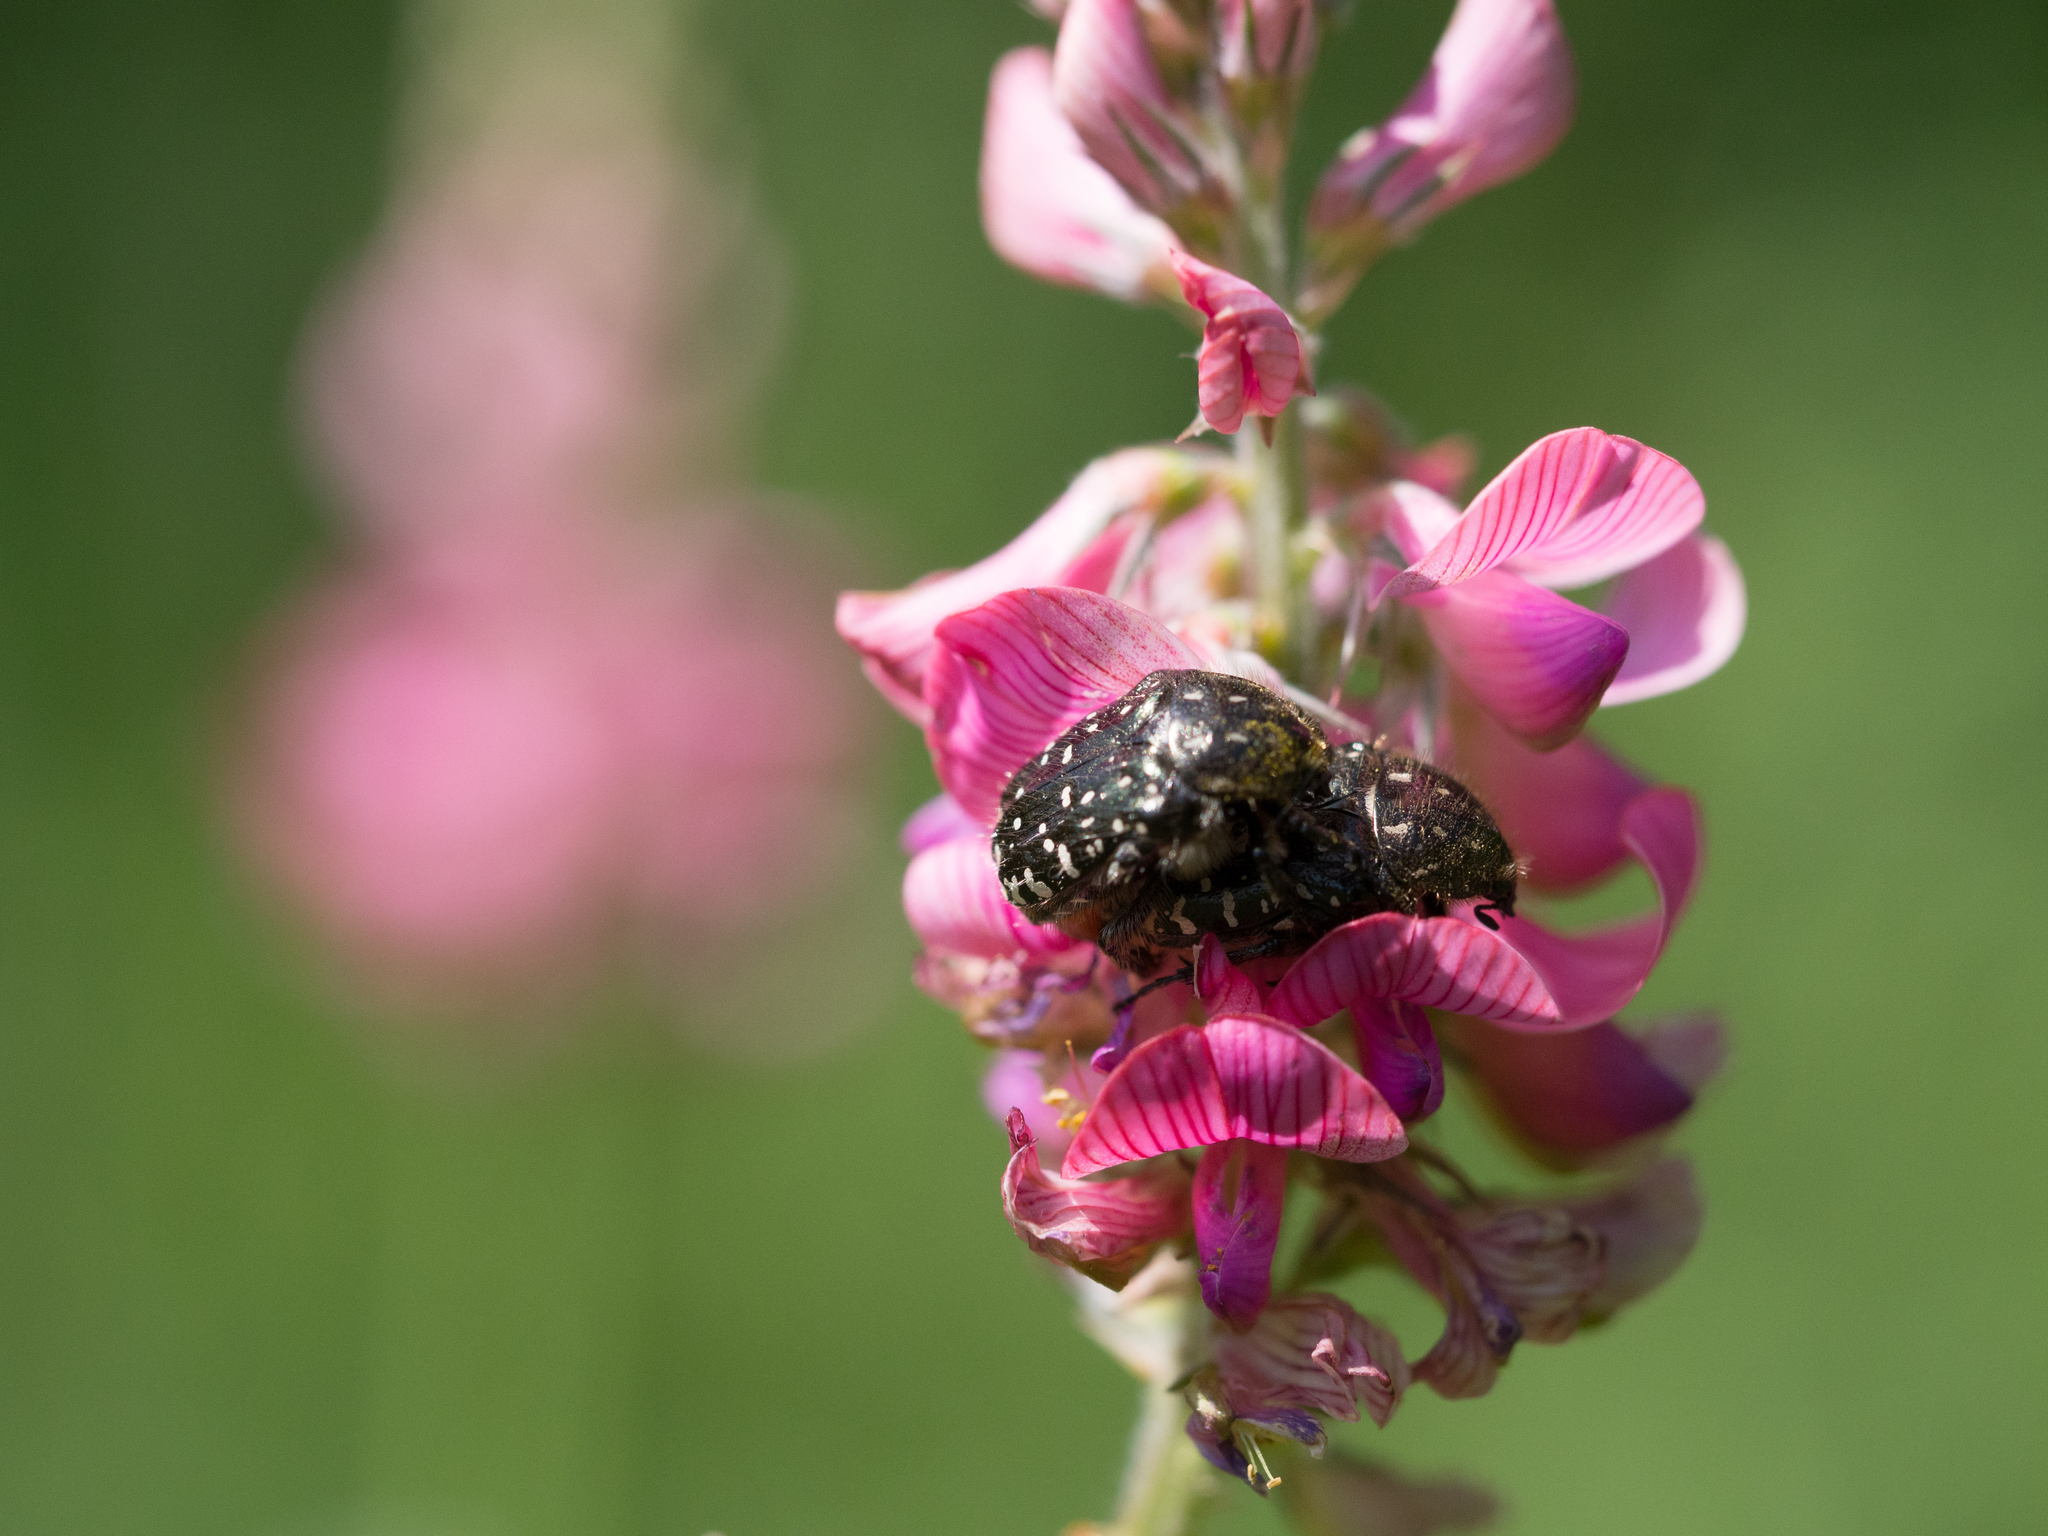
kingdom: Animalia
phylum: Arthropoda
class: Insecta
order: Coleoptera
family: Scarabaeidae
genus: Oxythyrea
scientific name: Oxythyrea funesta
